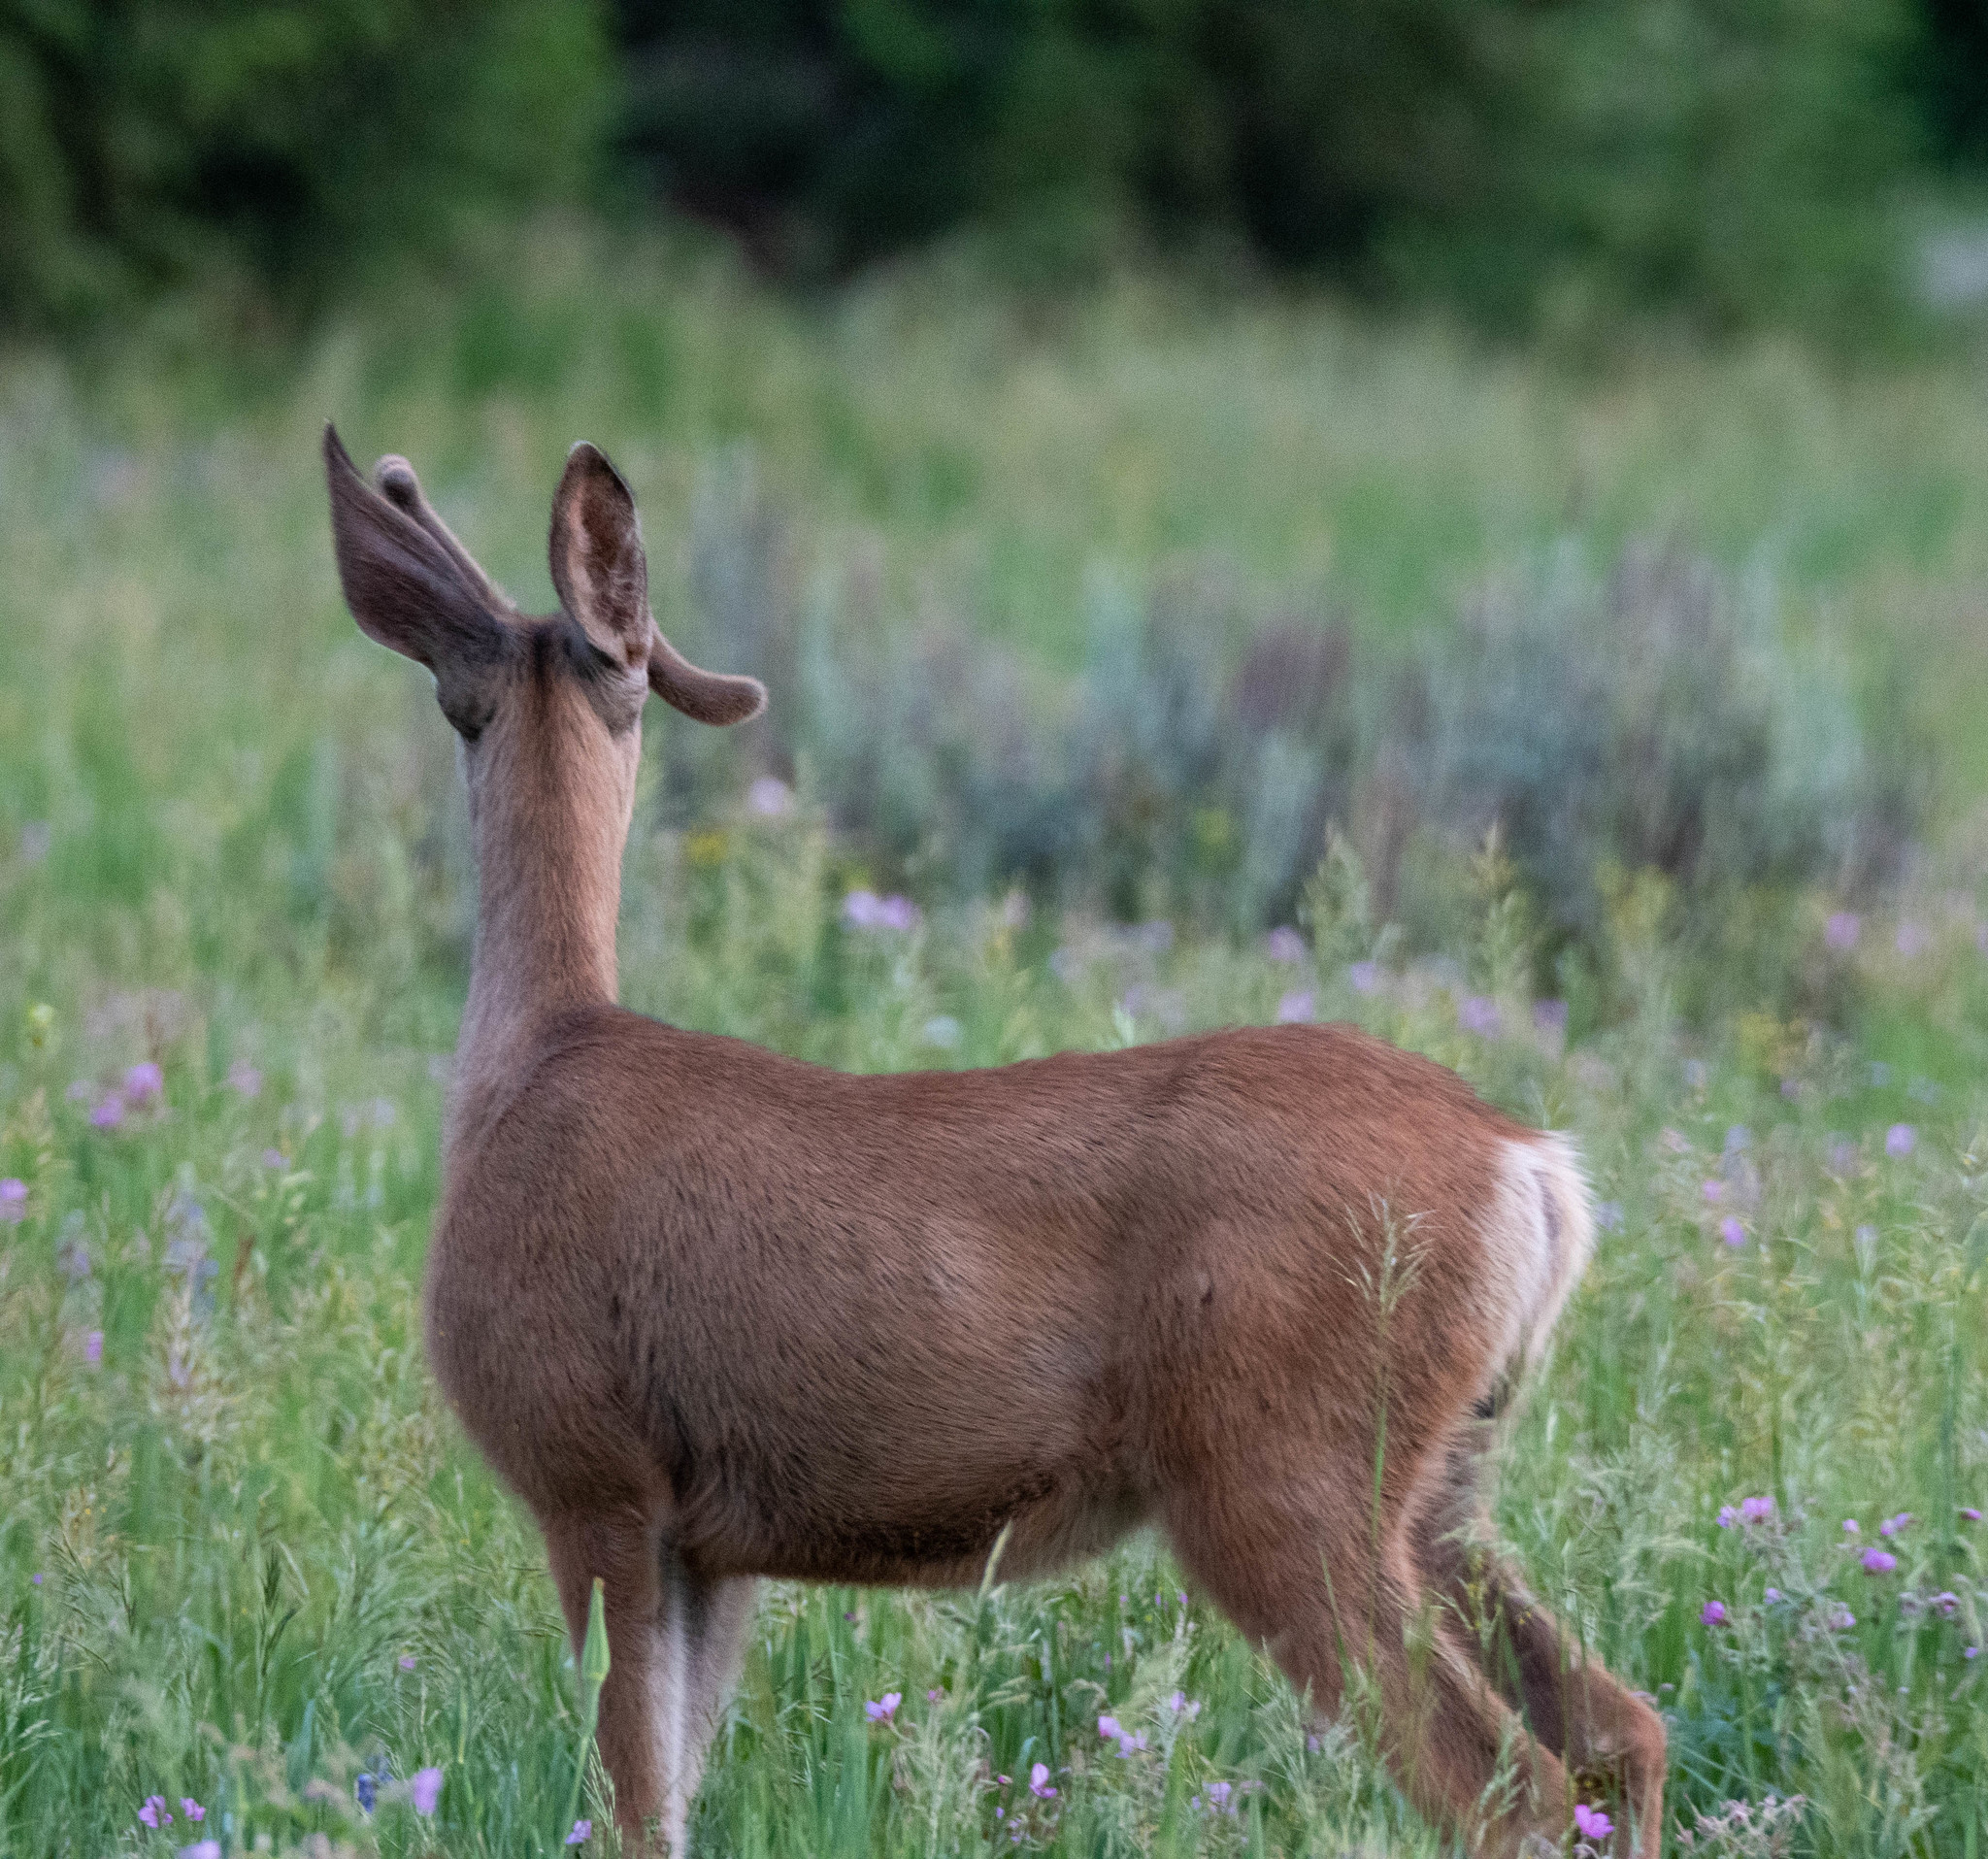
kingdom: Animalia
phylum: Chordata
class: Mammalia
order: Artiodactyla
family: Cervidae
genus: Odocoileus
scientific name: Odocoileus hemionus
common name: Mule deer
